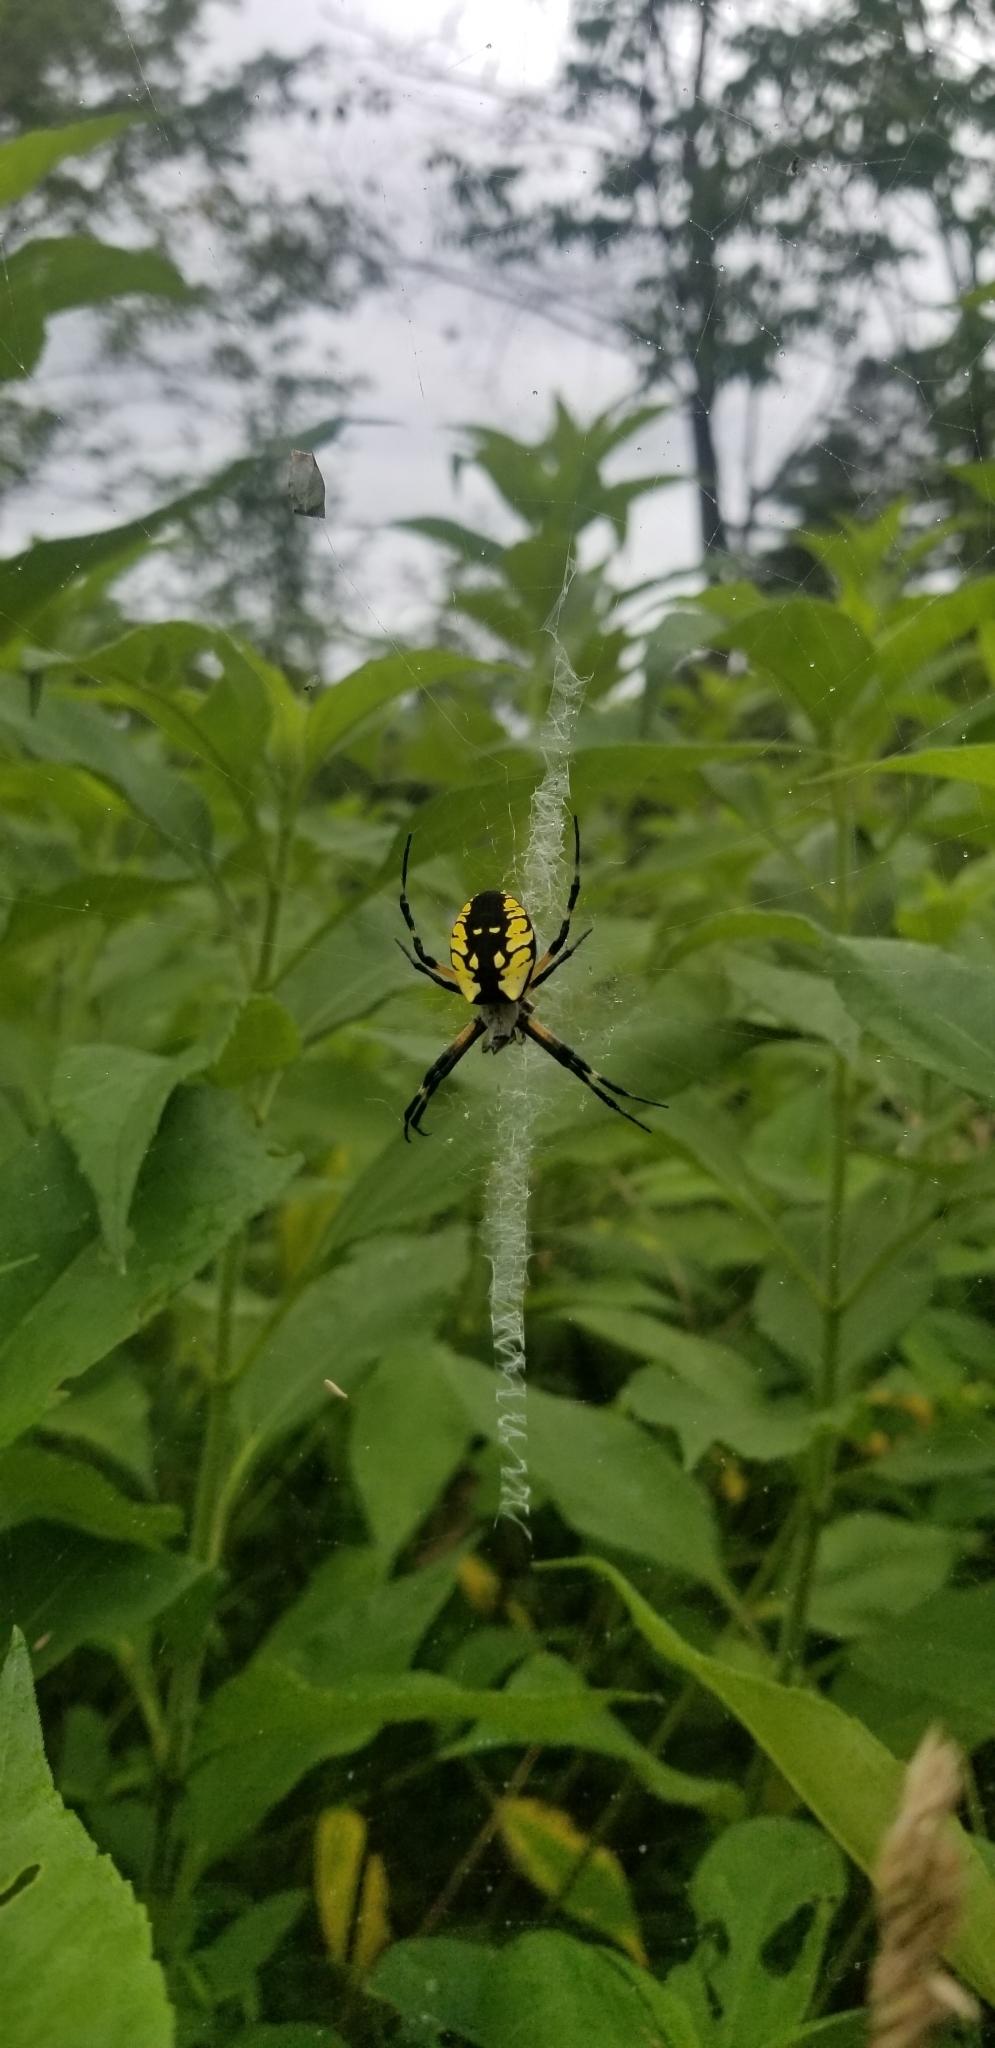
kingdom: Animalia
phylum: Arthropoda
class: Arachnida
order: Araneae
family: Araneidae
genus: Argiope
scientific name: Argiope aurantia
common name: Orb weavers
